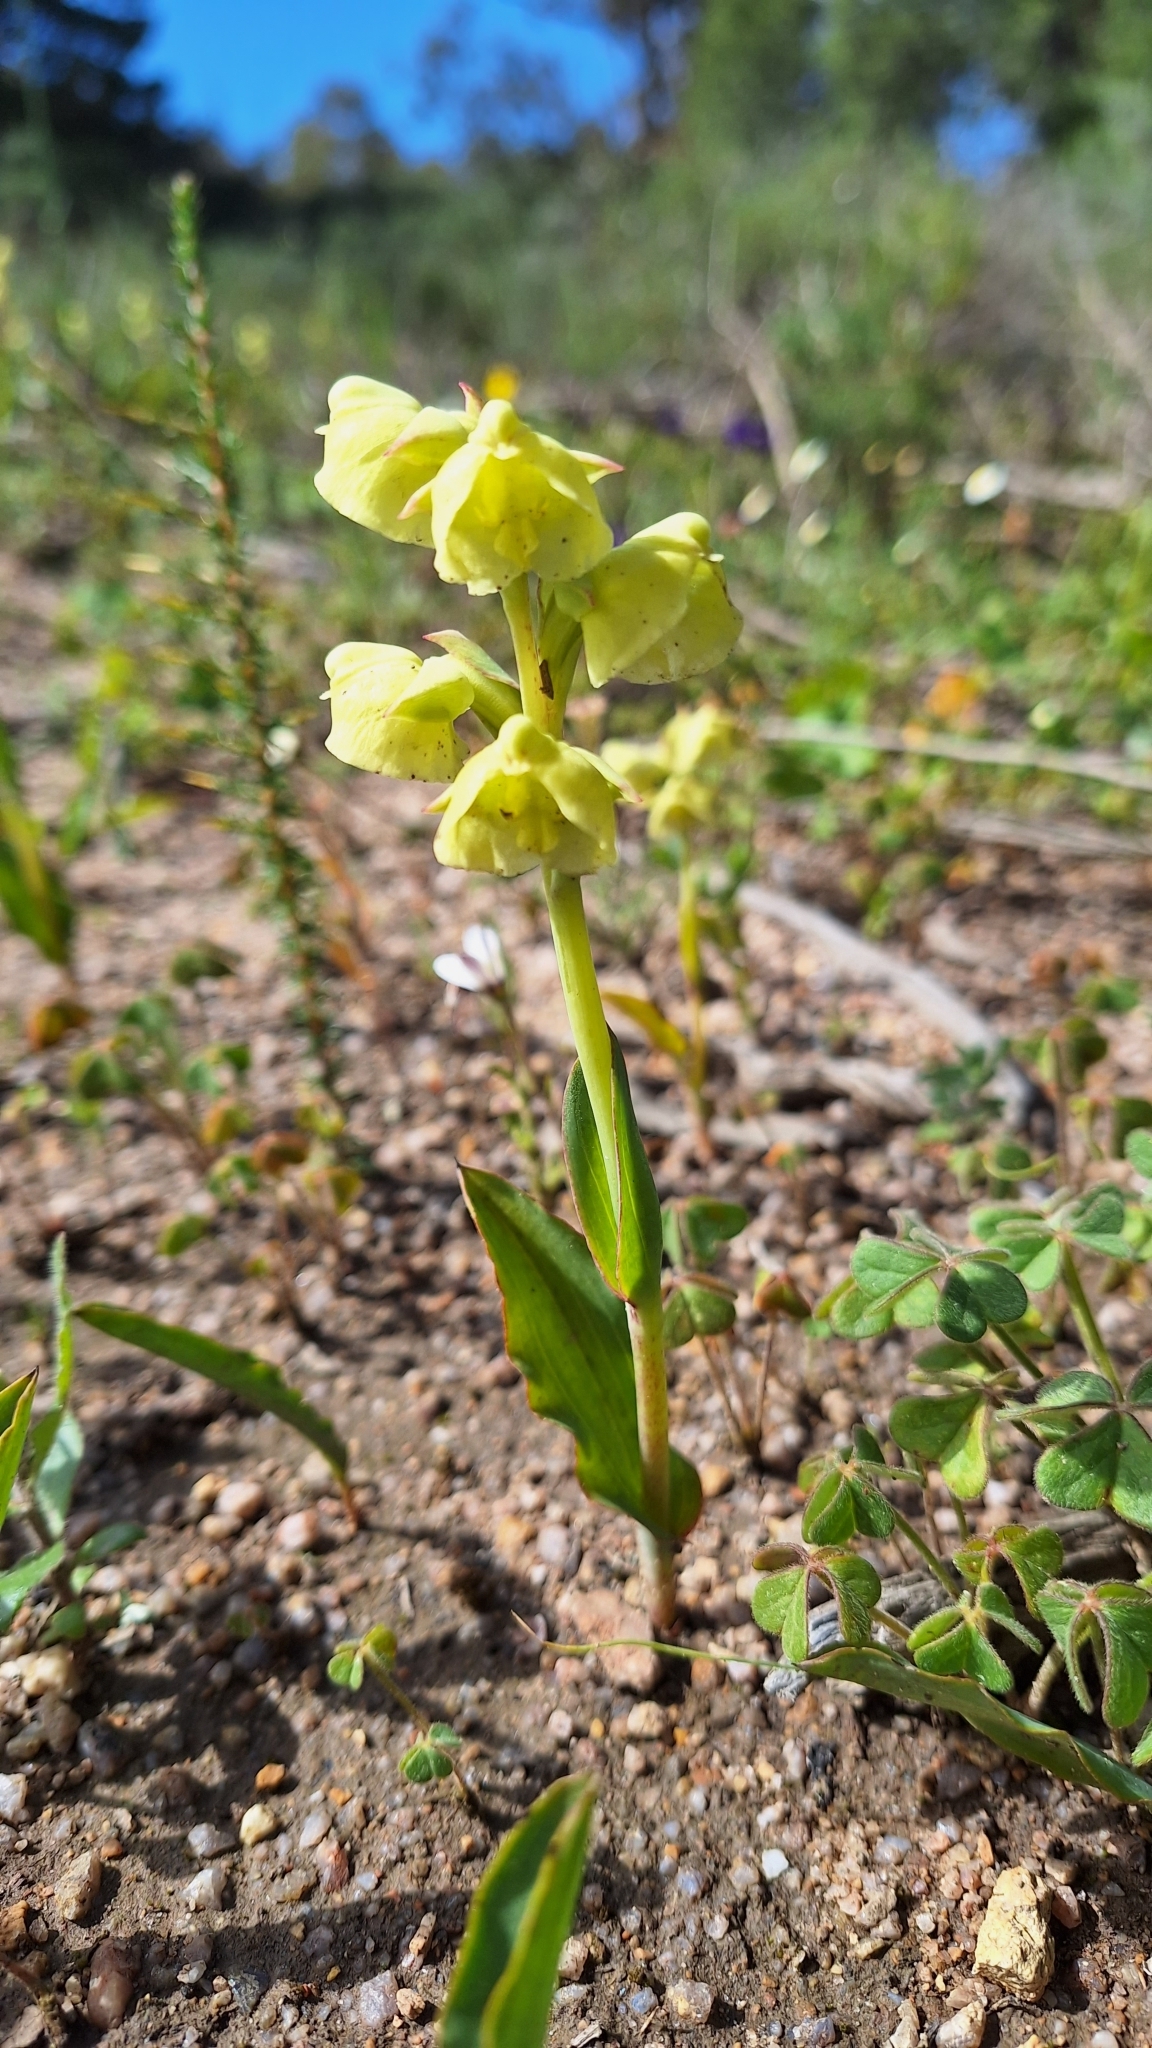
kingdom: Plantae
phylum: Tracheophyta
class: Liliopsida
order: Asparagales
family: Orchidaceae
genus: Pterygodium
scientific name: Pterygodium catholicum
